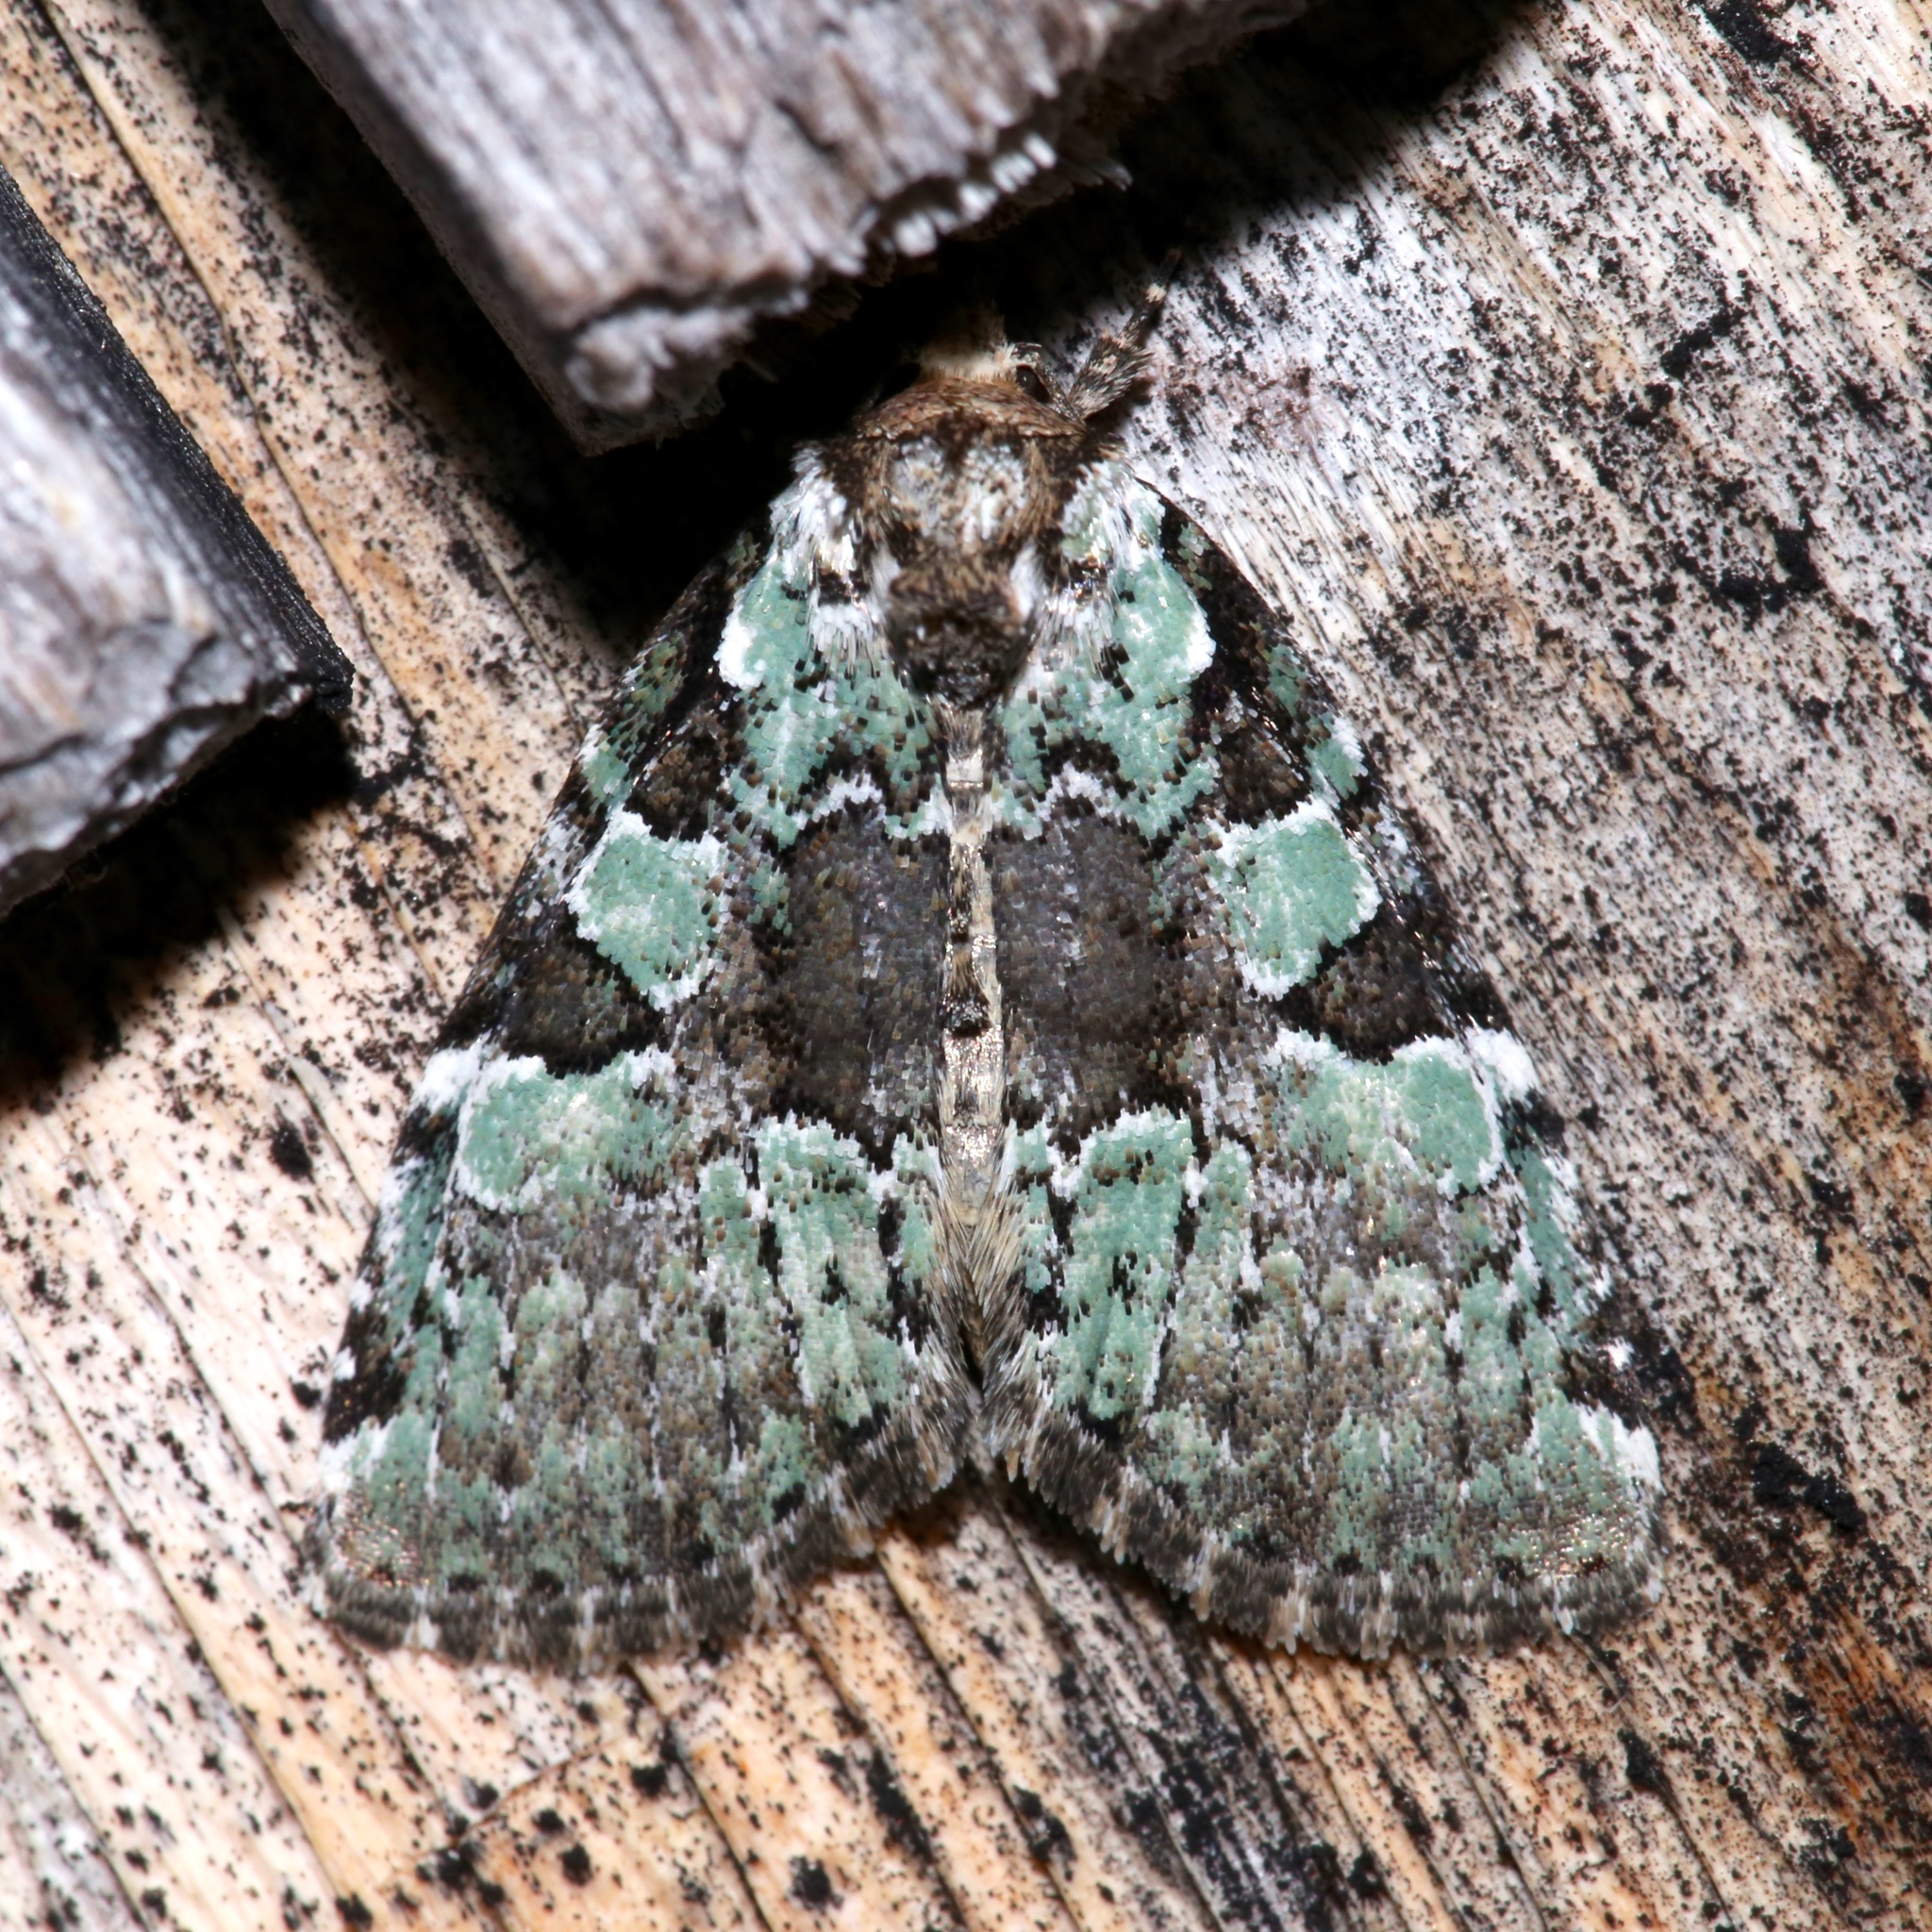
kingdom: Animalia
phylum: Arthropoda
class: Insecta
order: Lepidoptera
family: Noctuidae
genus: Leuconycta
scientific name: Leuconycta lepidula
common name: Marbled-green leuconycta moth
